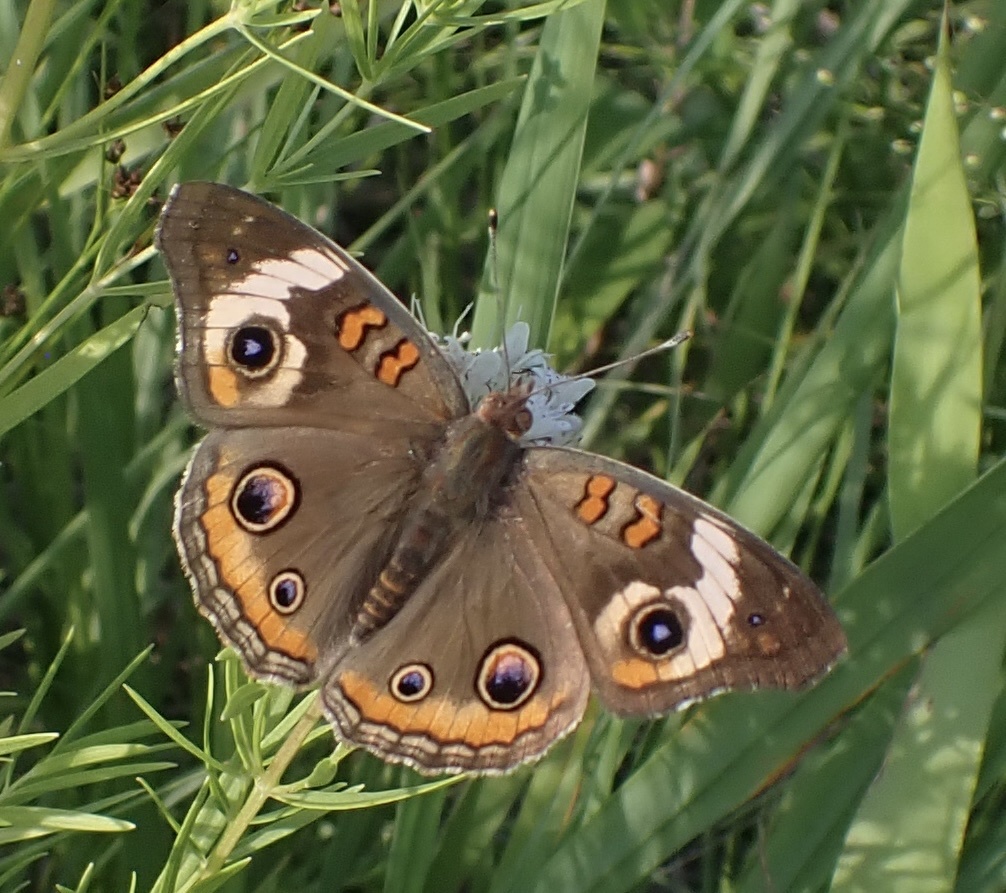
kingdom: Animalia
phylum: Arthropoda
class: Insecta
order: Lepidoptera
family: Nymphalidae
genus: Junonia
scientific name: Junonia coenia
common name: Common buckeye
